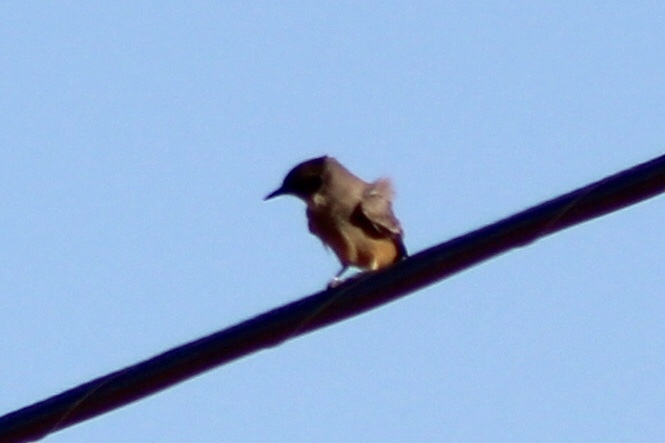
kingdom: Animalia
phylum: Chordata
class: Aves
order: Passeriformes
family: Tyrannidae
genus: Sayornis
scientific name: Sayornis saya
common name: Say's phoebe
